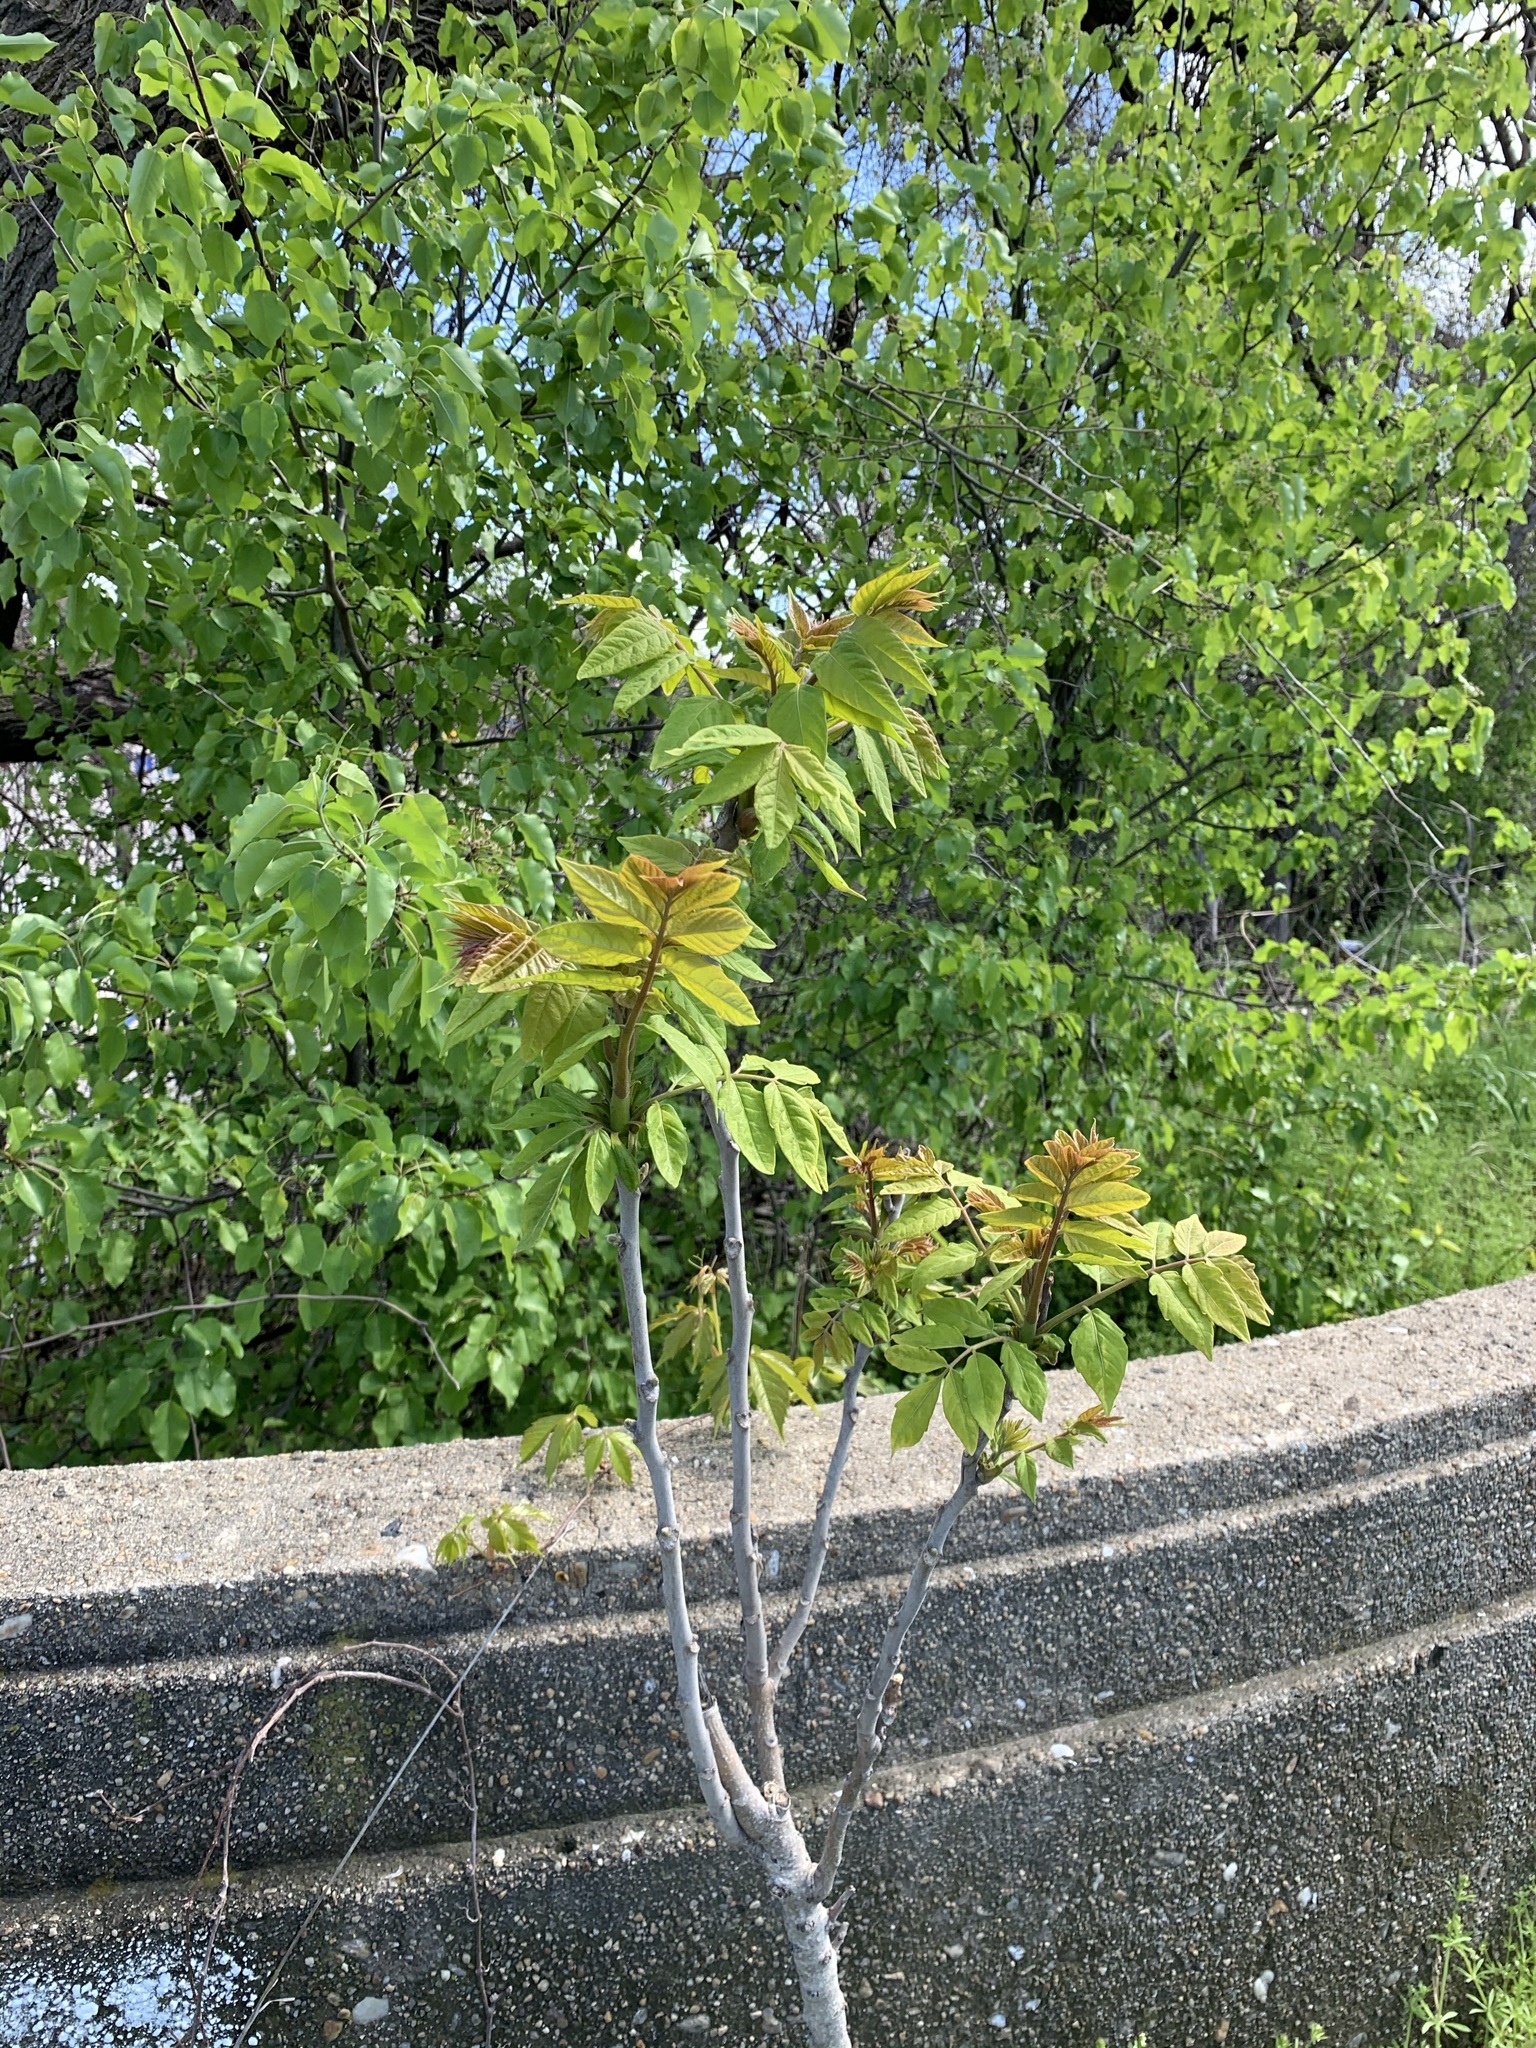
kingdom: Plantae
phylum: Tracheophyta
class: Magnoliopsida
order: Sapindales
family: Simaroubaceae
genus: Ailanthus
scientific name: Ailanthus altissima
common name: Tree-of-heaven
